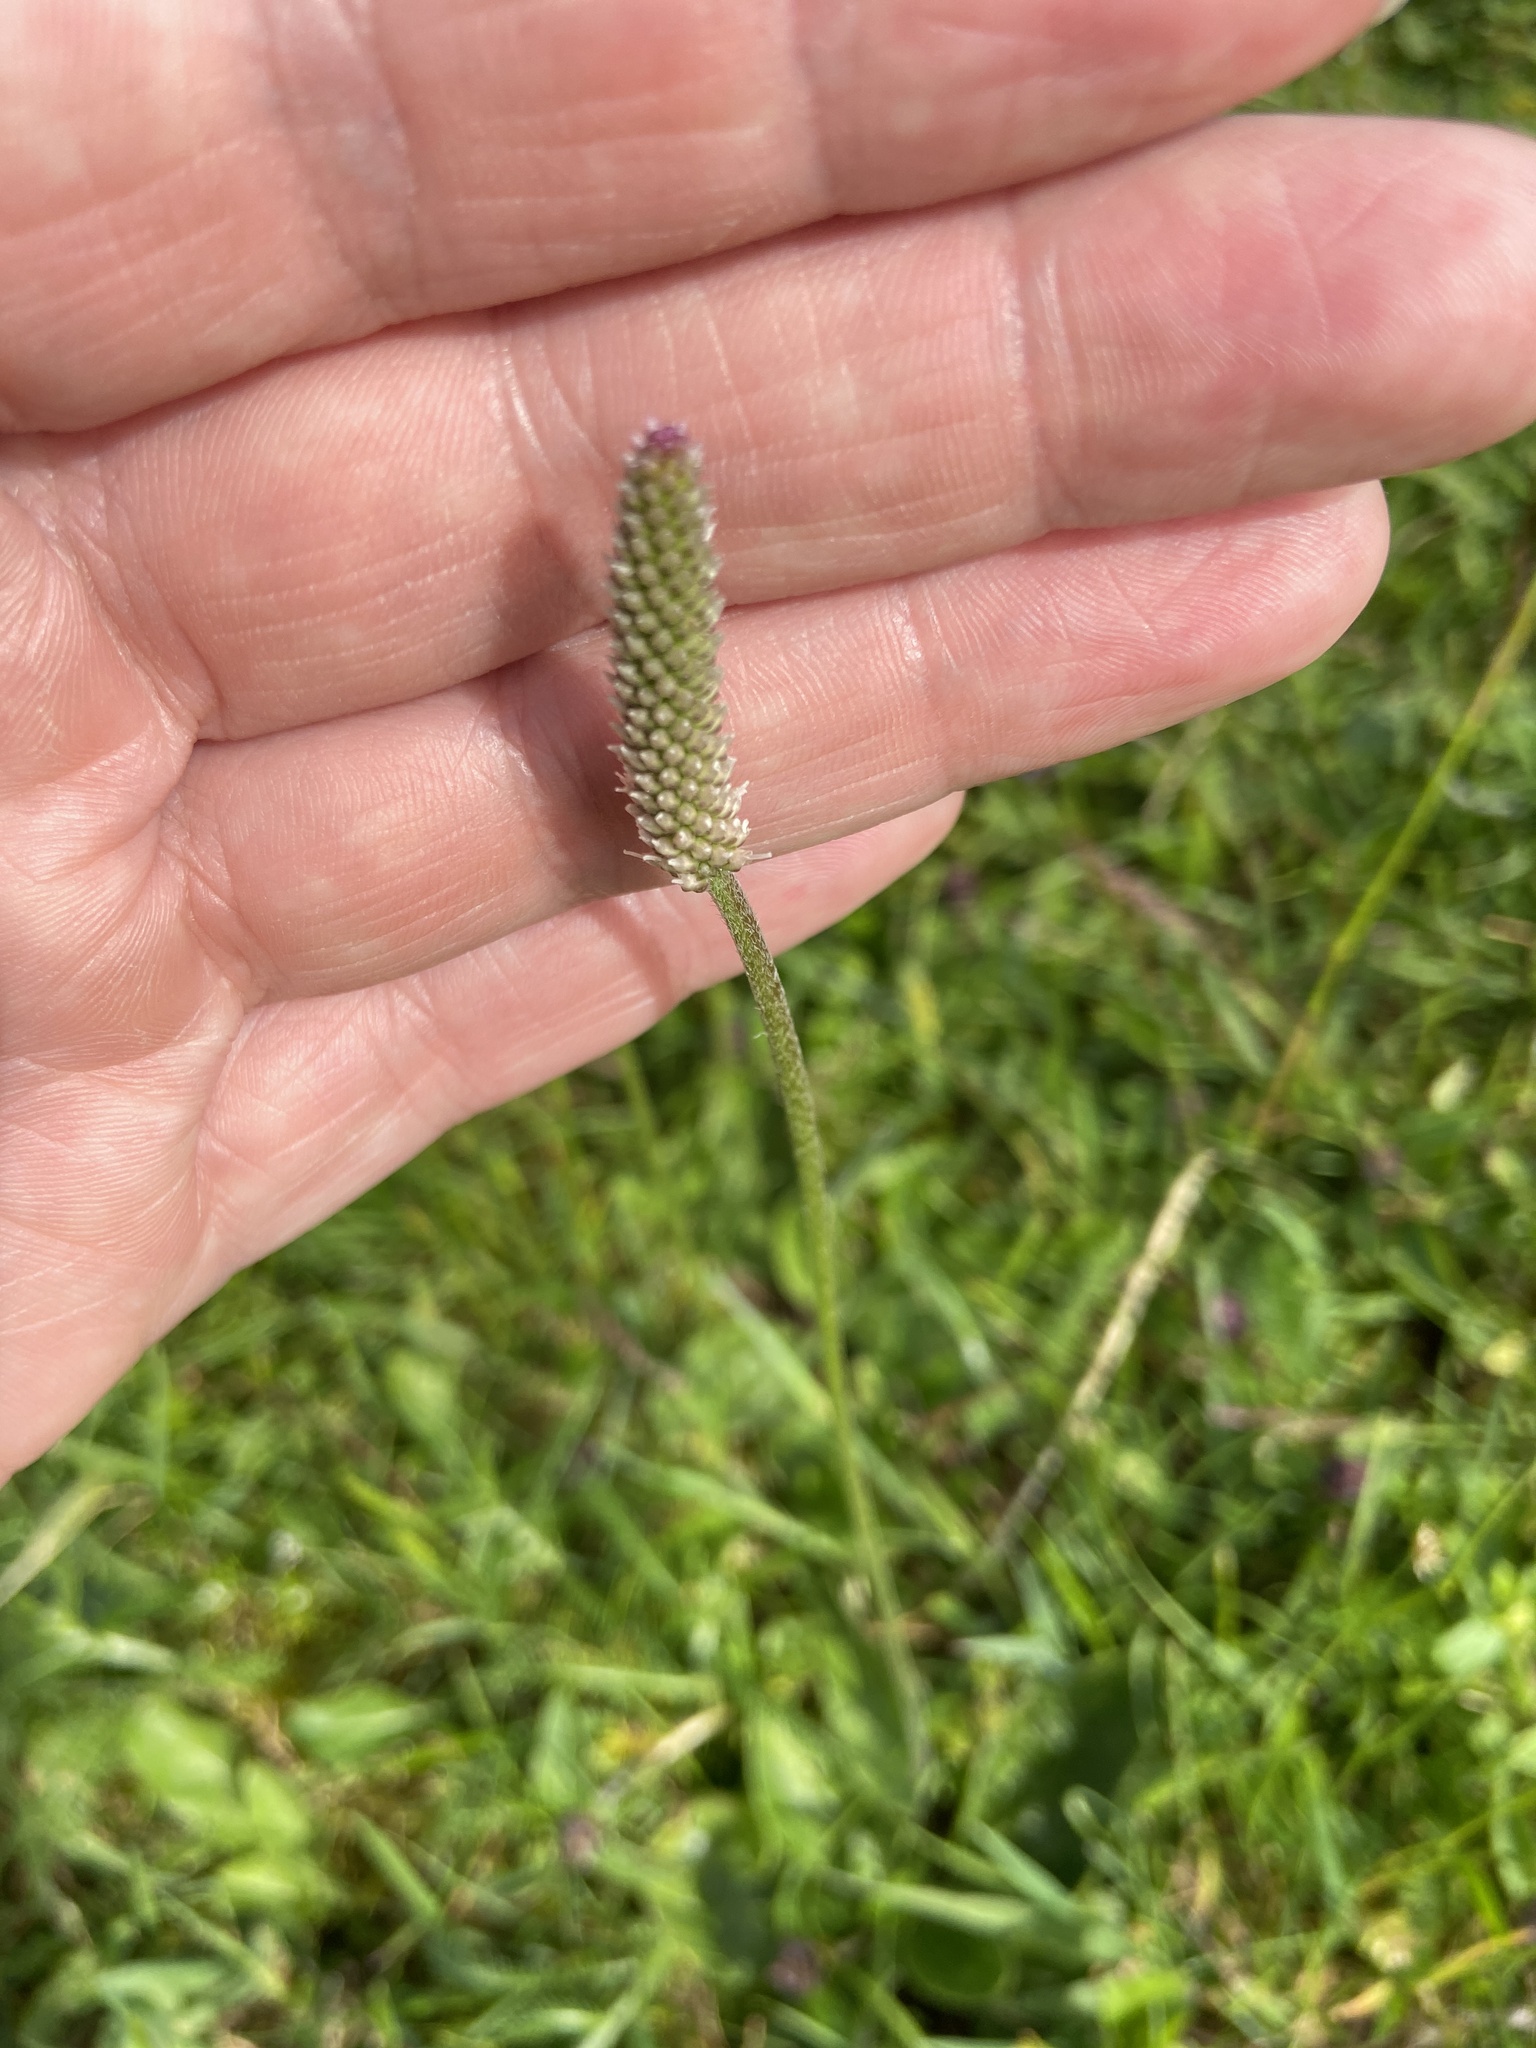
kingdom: Plantae
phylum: Tracheophyta
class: Magnoliopsida
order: Lamiales
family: Plantaginaceae
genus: Plantago
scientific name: Plantago media
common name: Hoary plantain
